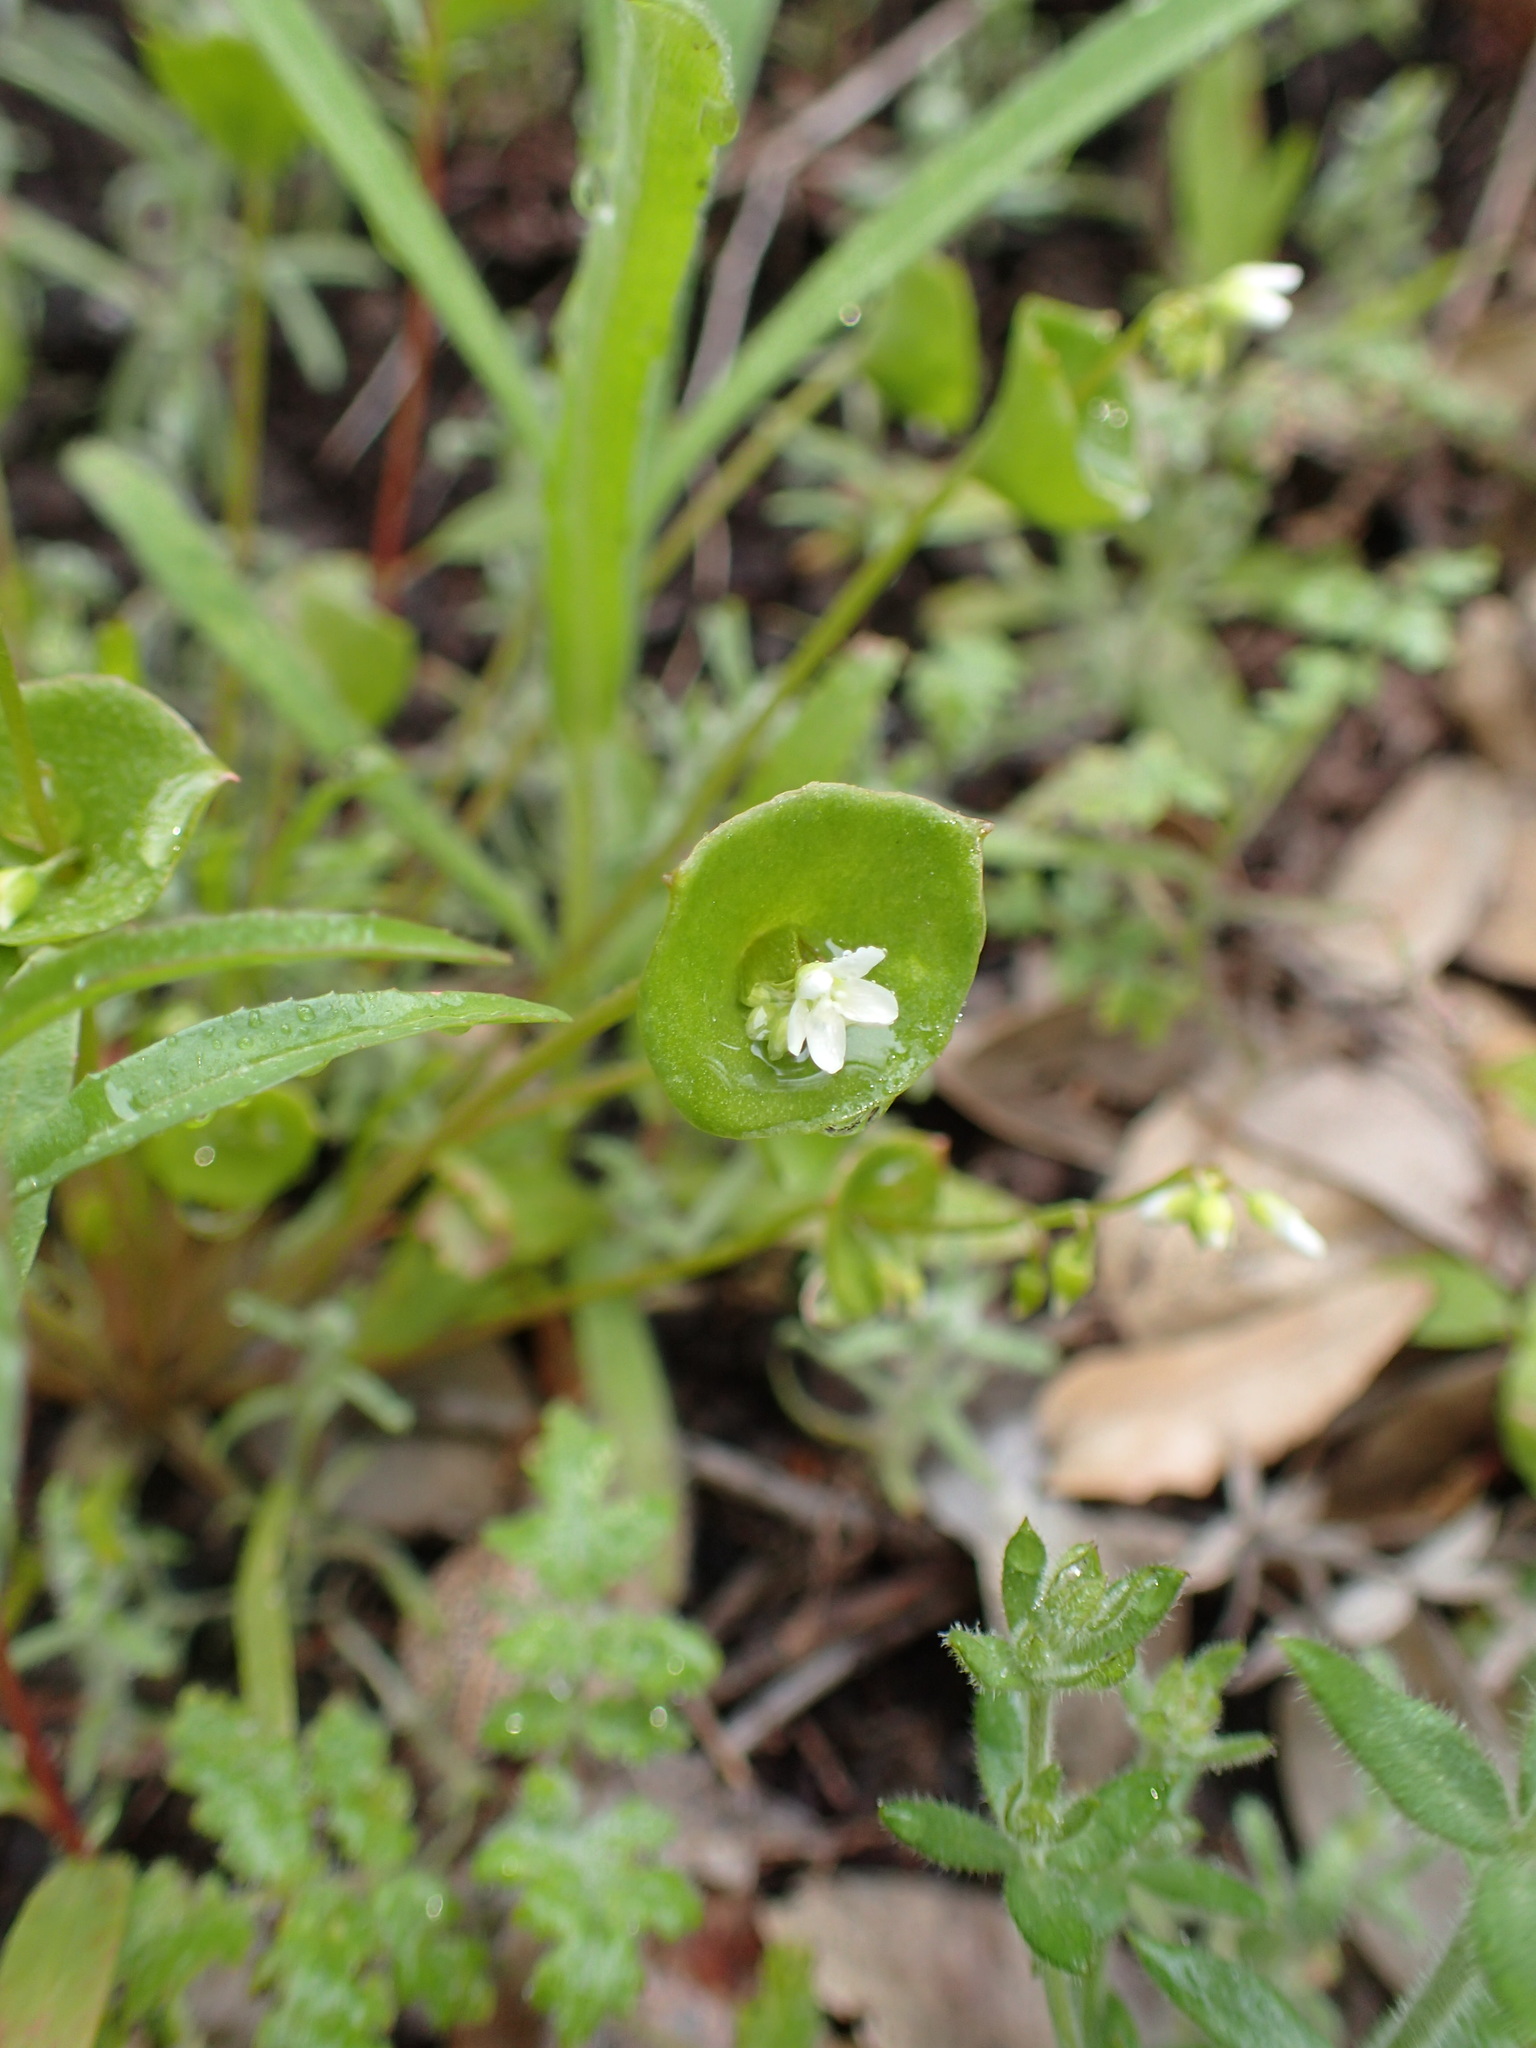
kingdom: Plantae
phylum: Tracheophyta
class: Magnoliopsida
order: Caryophyllales
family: Montiaceae
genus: Claytonia
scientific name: Claytonia perfoliata
